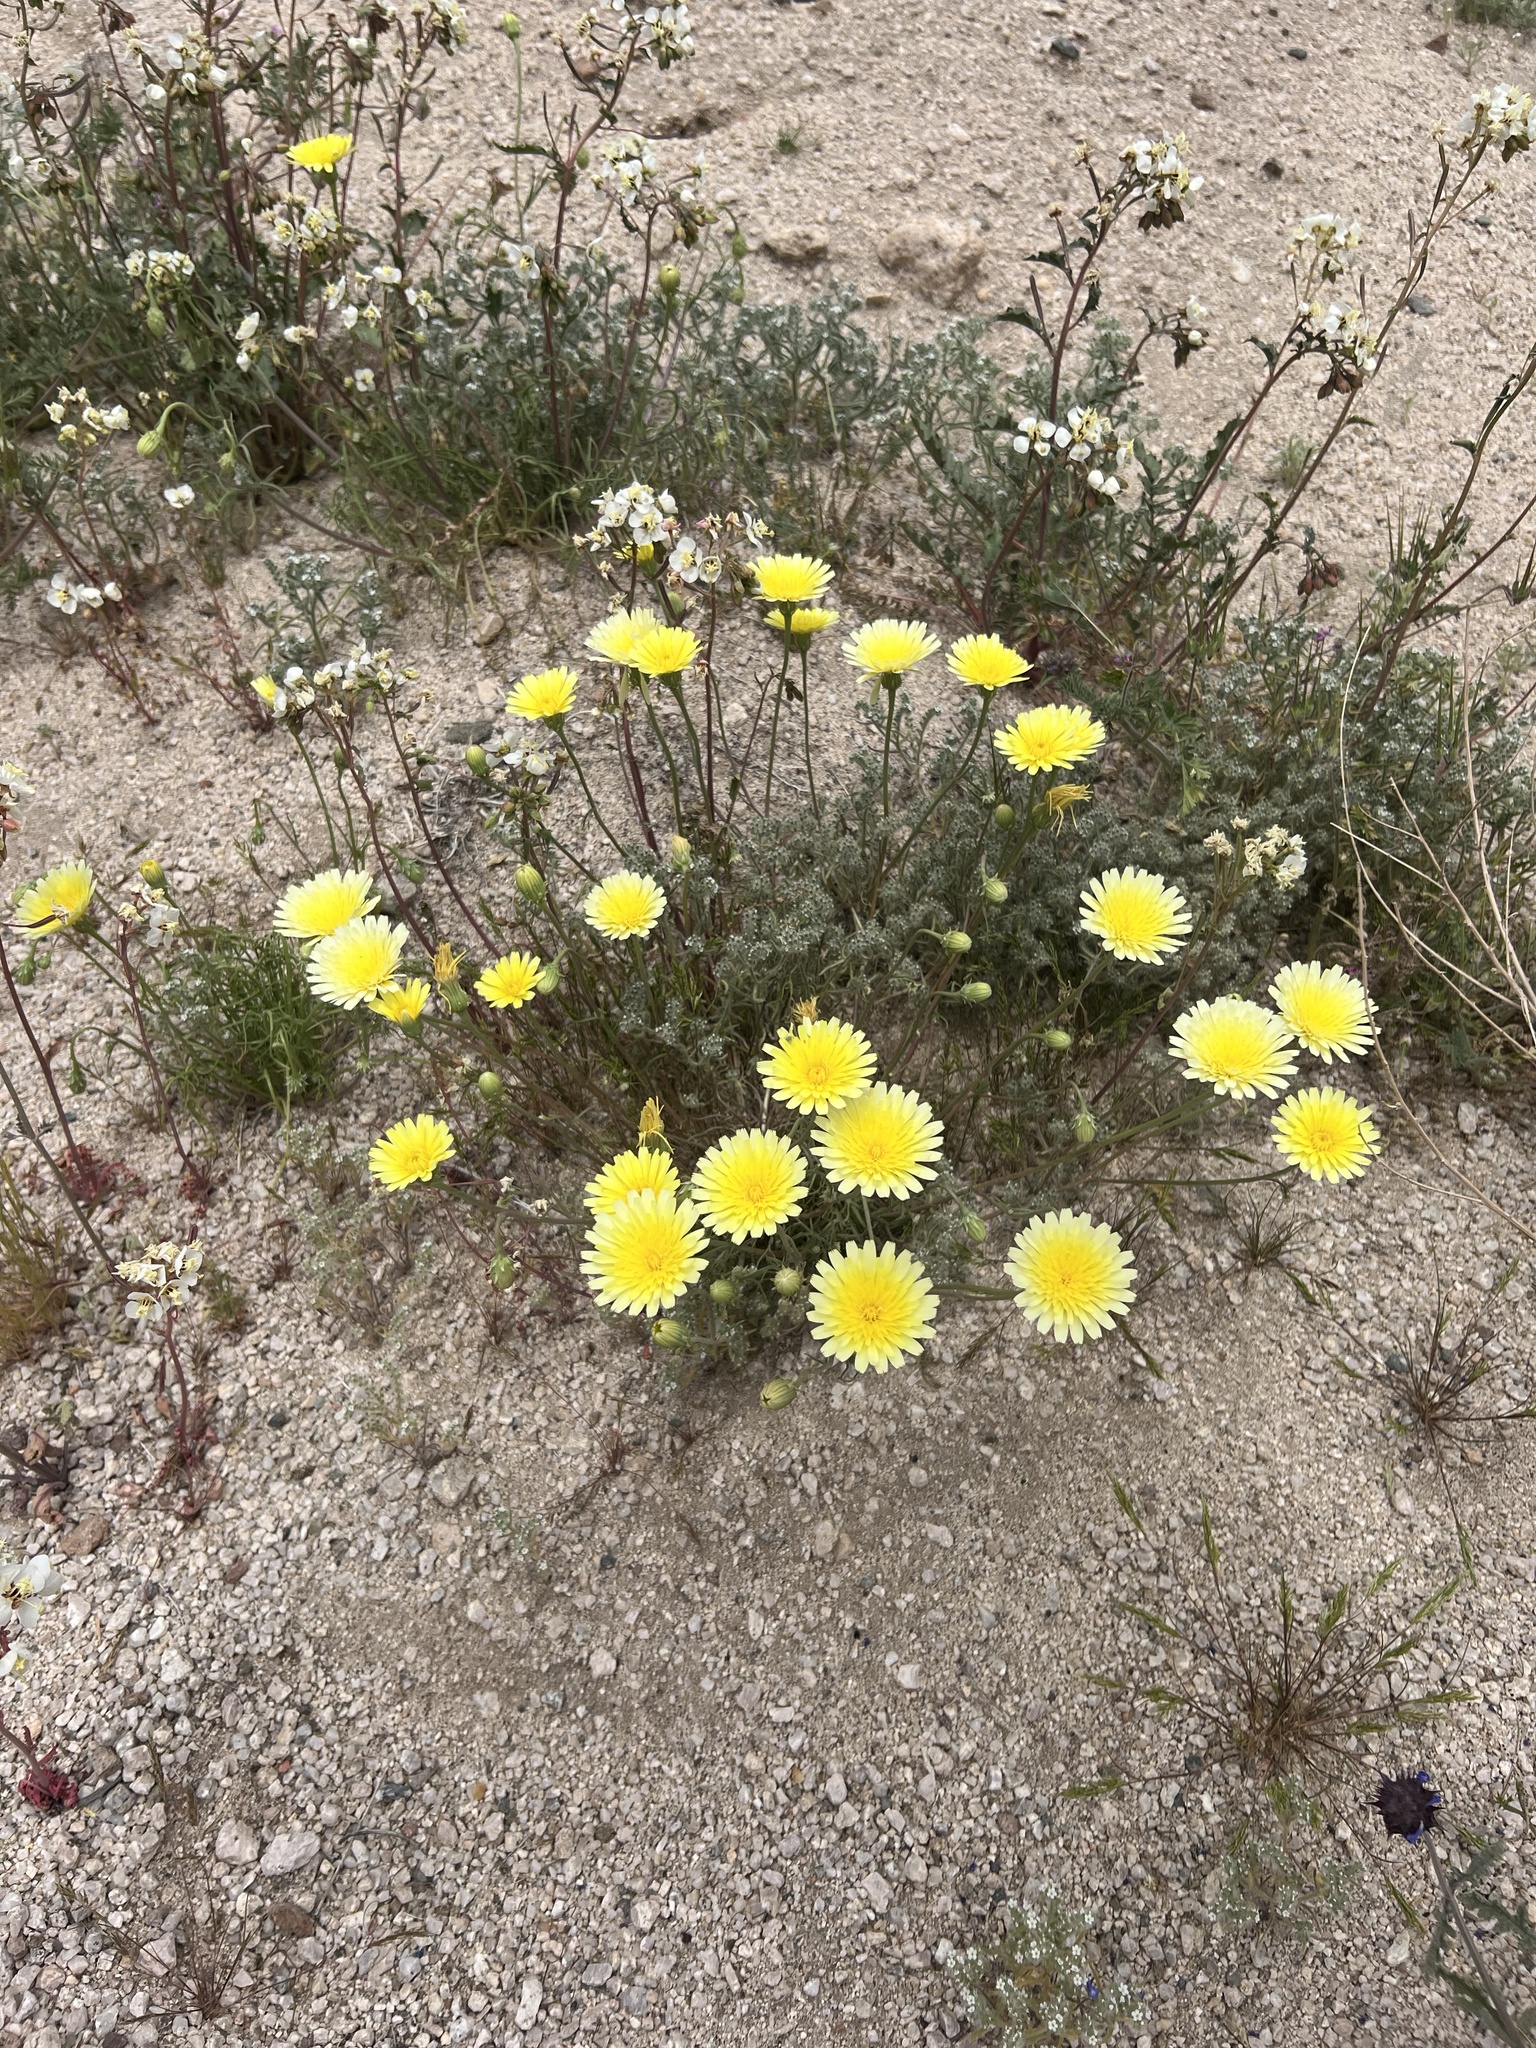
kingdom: Plantae
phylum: Tracheophyta
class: Magnoliopsida
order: Asterales
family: Asteraceae
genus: Malacothrix
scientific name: Malacothrix glabrata
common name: Smooth desert-dandelion
